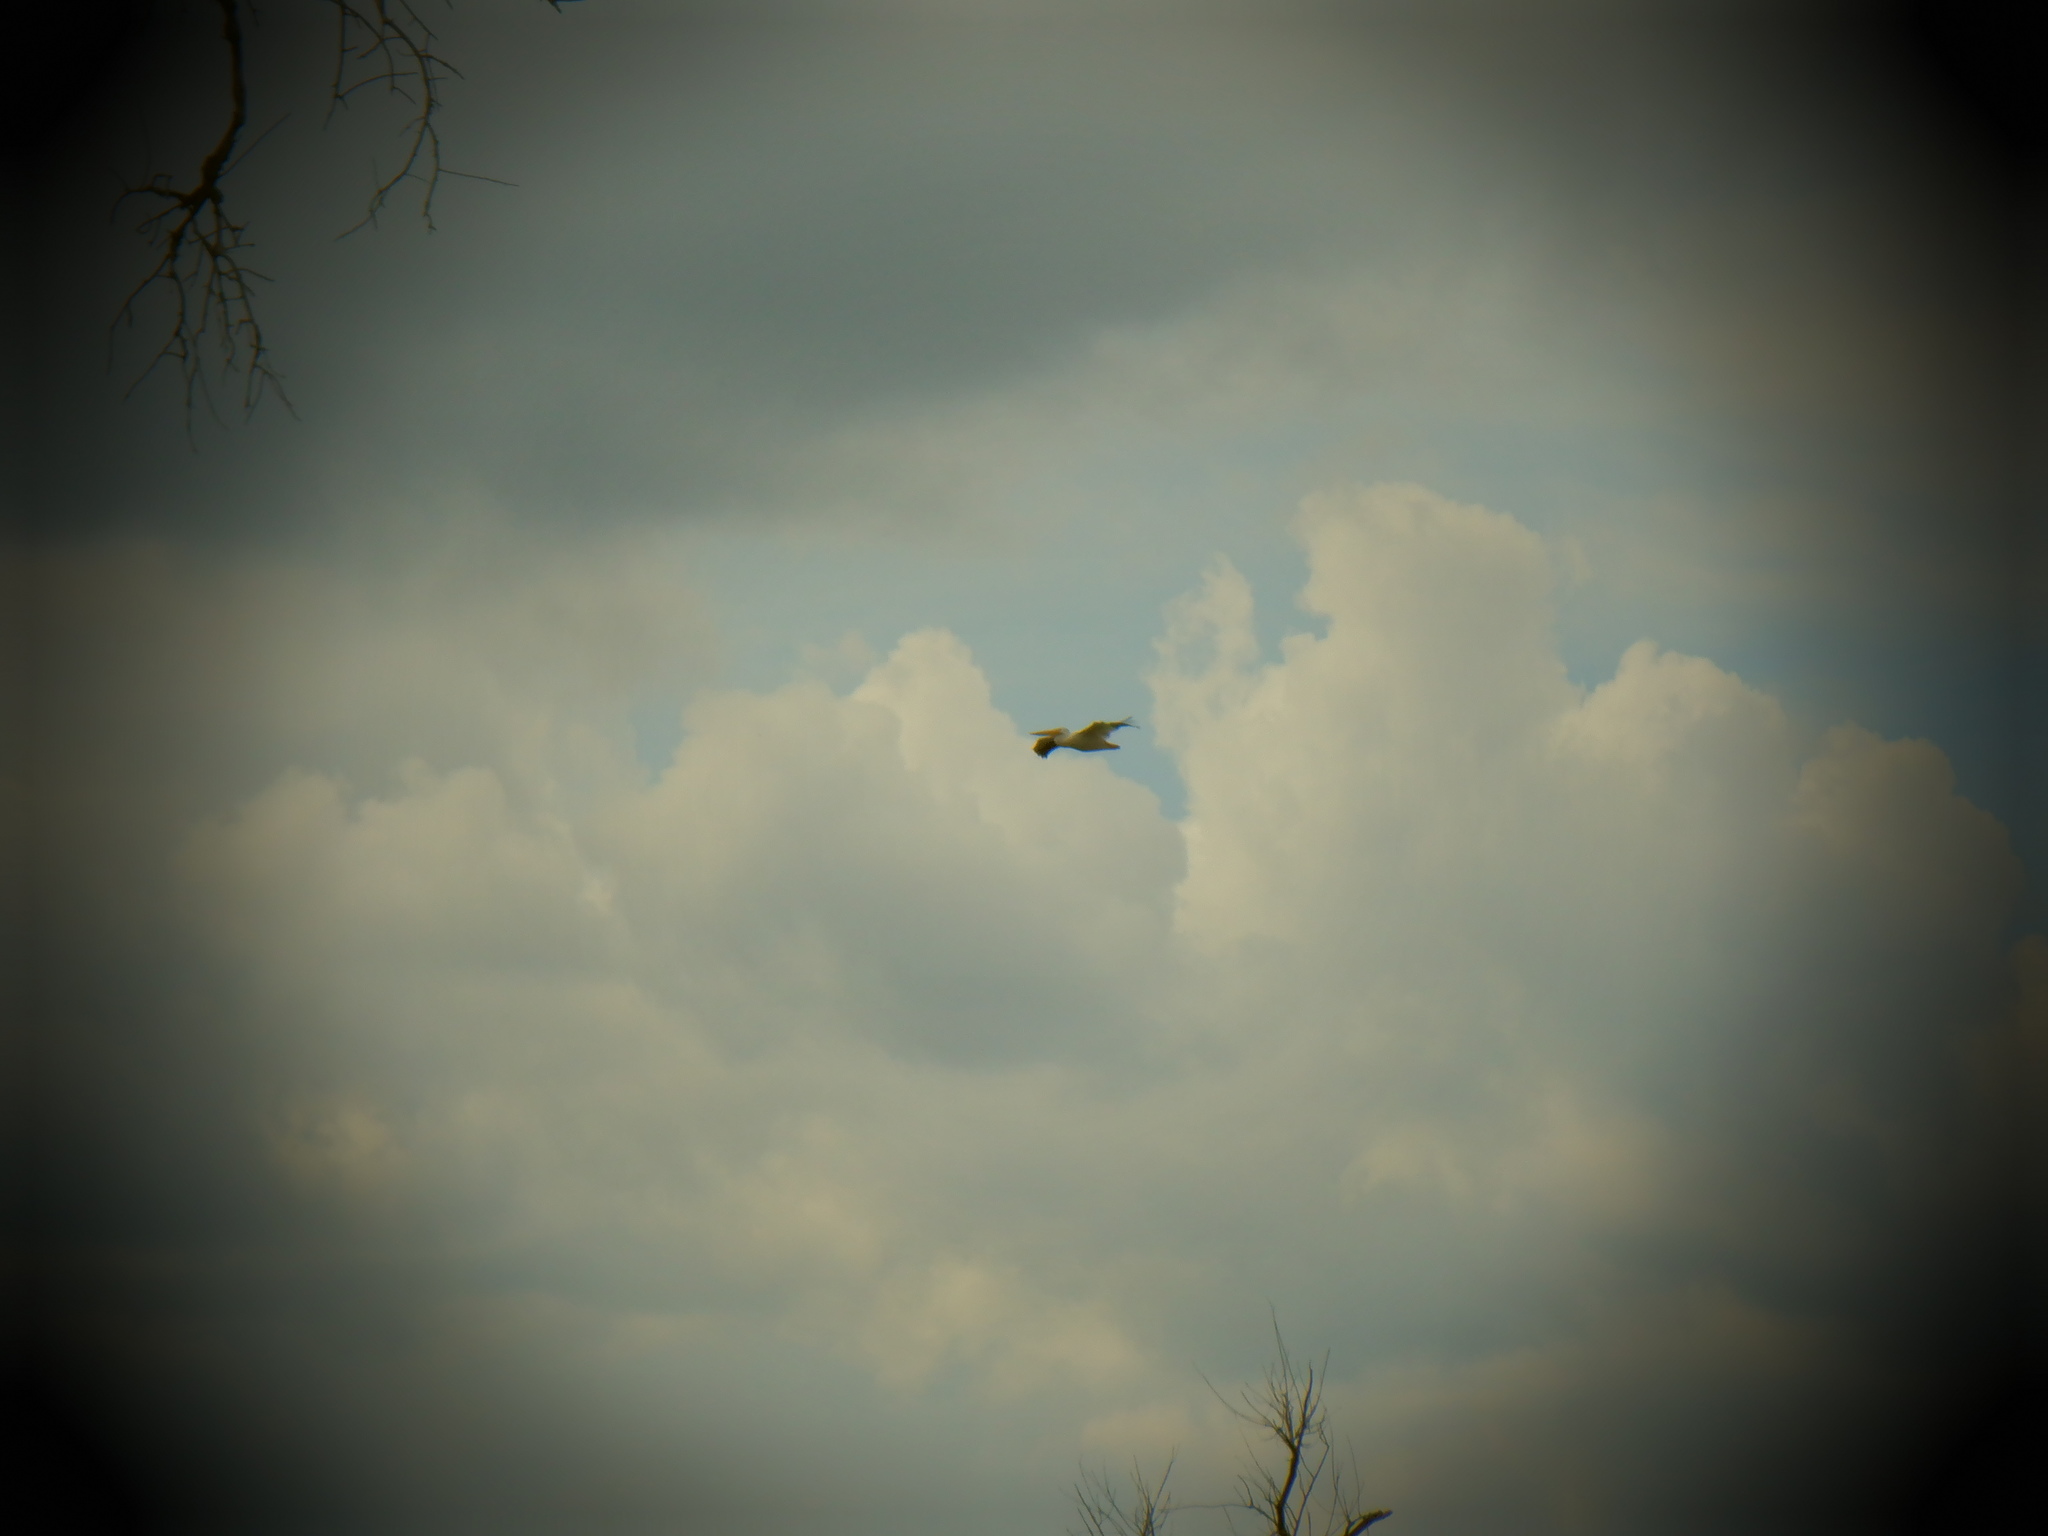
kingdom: Animalia
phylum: Chordata
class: Aves
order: Pelecaniformes
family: Pelecanidae
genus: Pelecanus
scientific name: Pelecanus erythrorhynchos
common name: American white pelican
